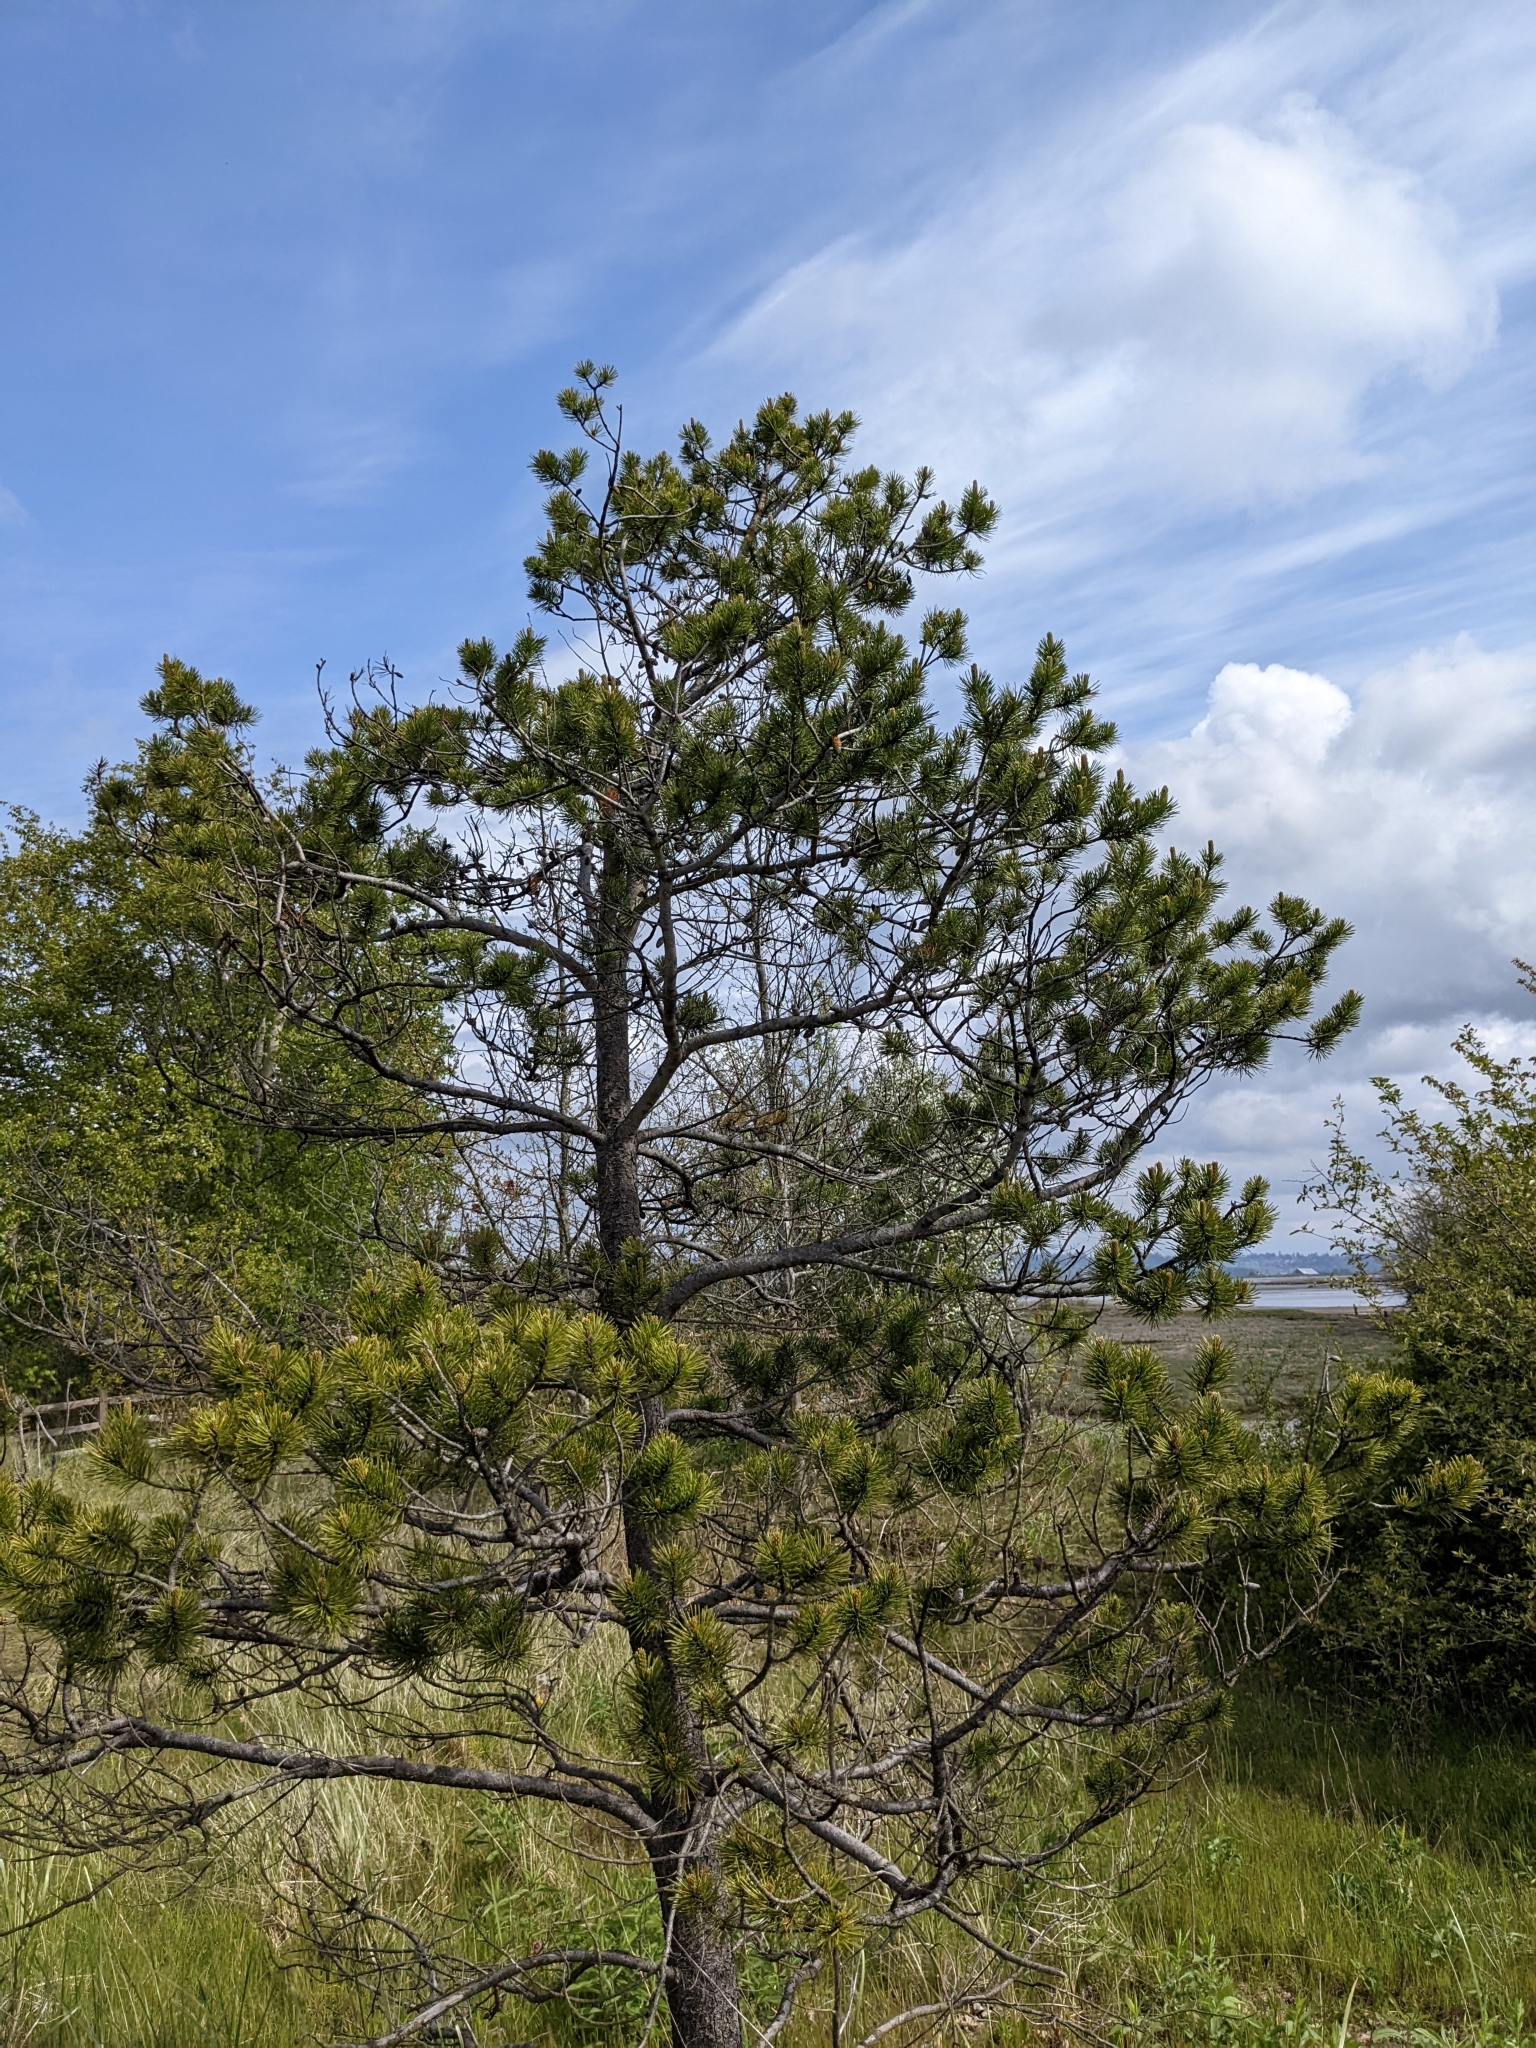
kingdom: Plantae
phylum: Tracheophyta
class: Pinopsida
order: Pinales
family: Pinaceae
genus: Pinus
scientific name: Pinus contorta
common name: Lodgepole pine
